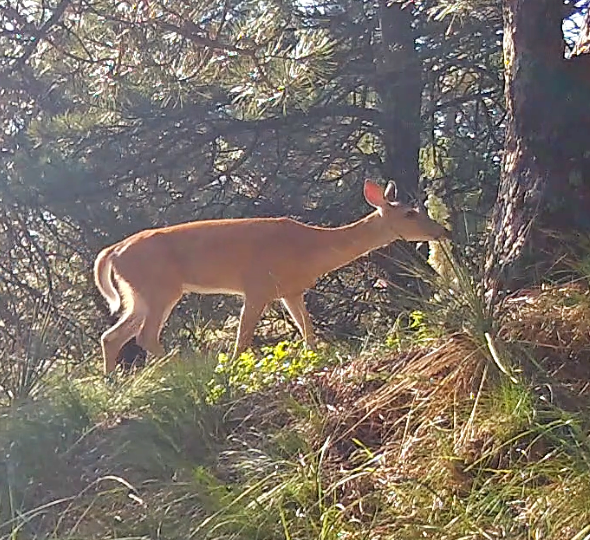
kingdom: Animalia
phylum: Chordata
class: Mammalia
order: Artiodactyla
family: Cervidae
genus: Odocoileus
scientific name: Odocoileus virginianus
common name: White-tailed deer
